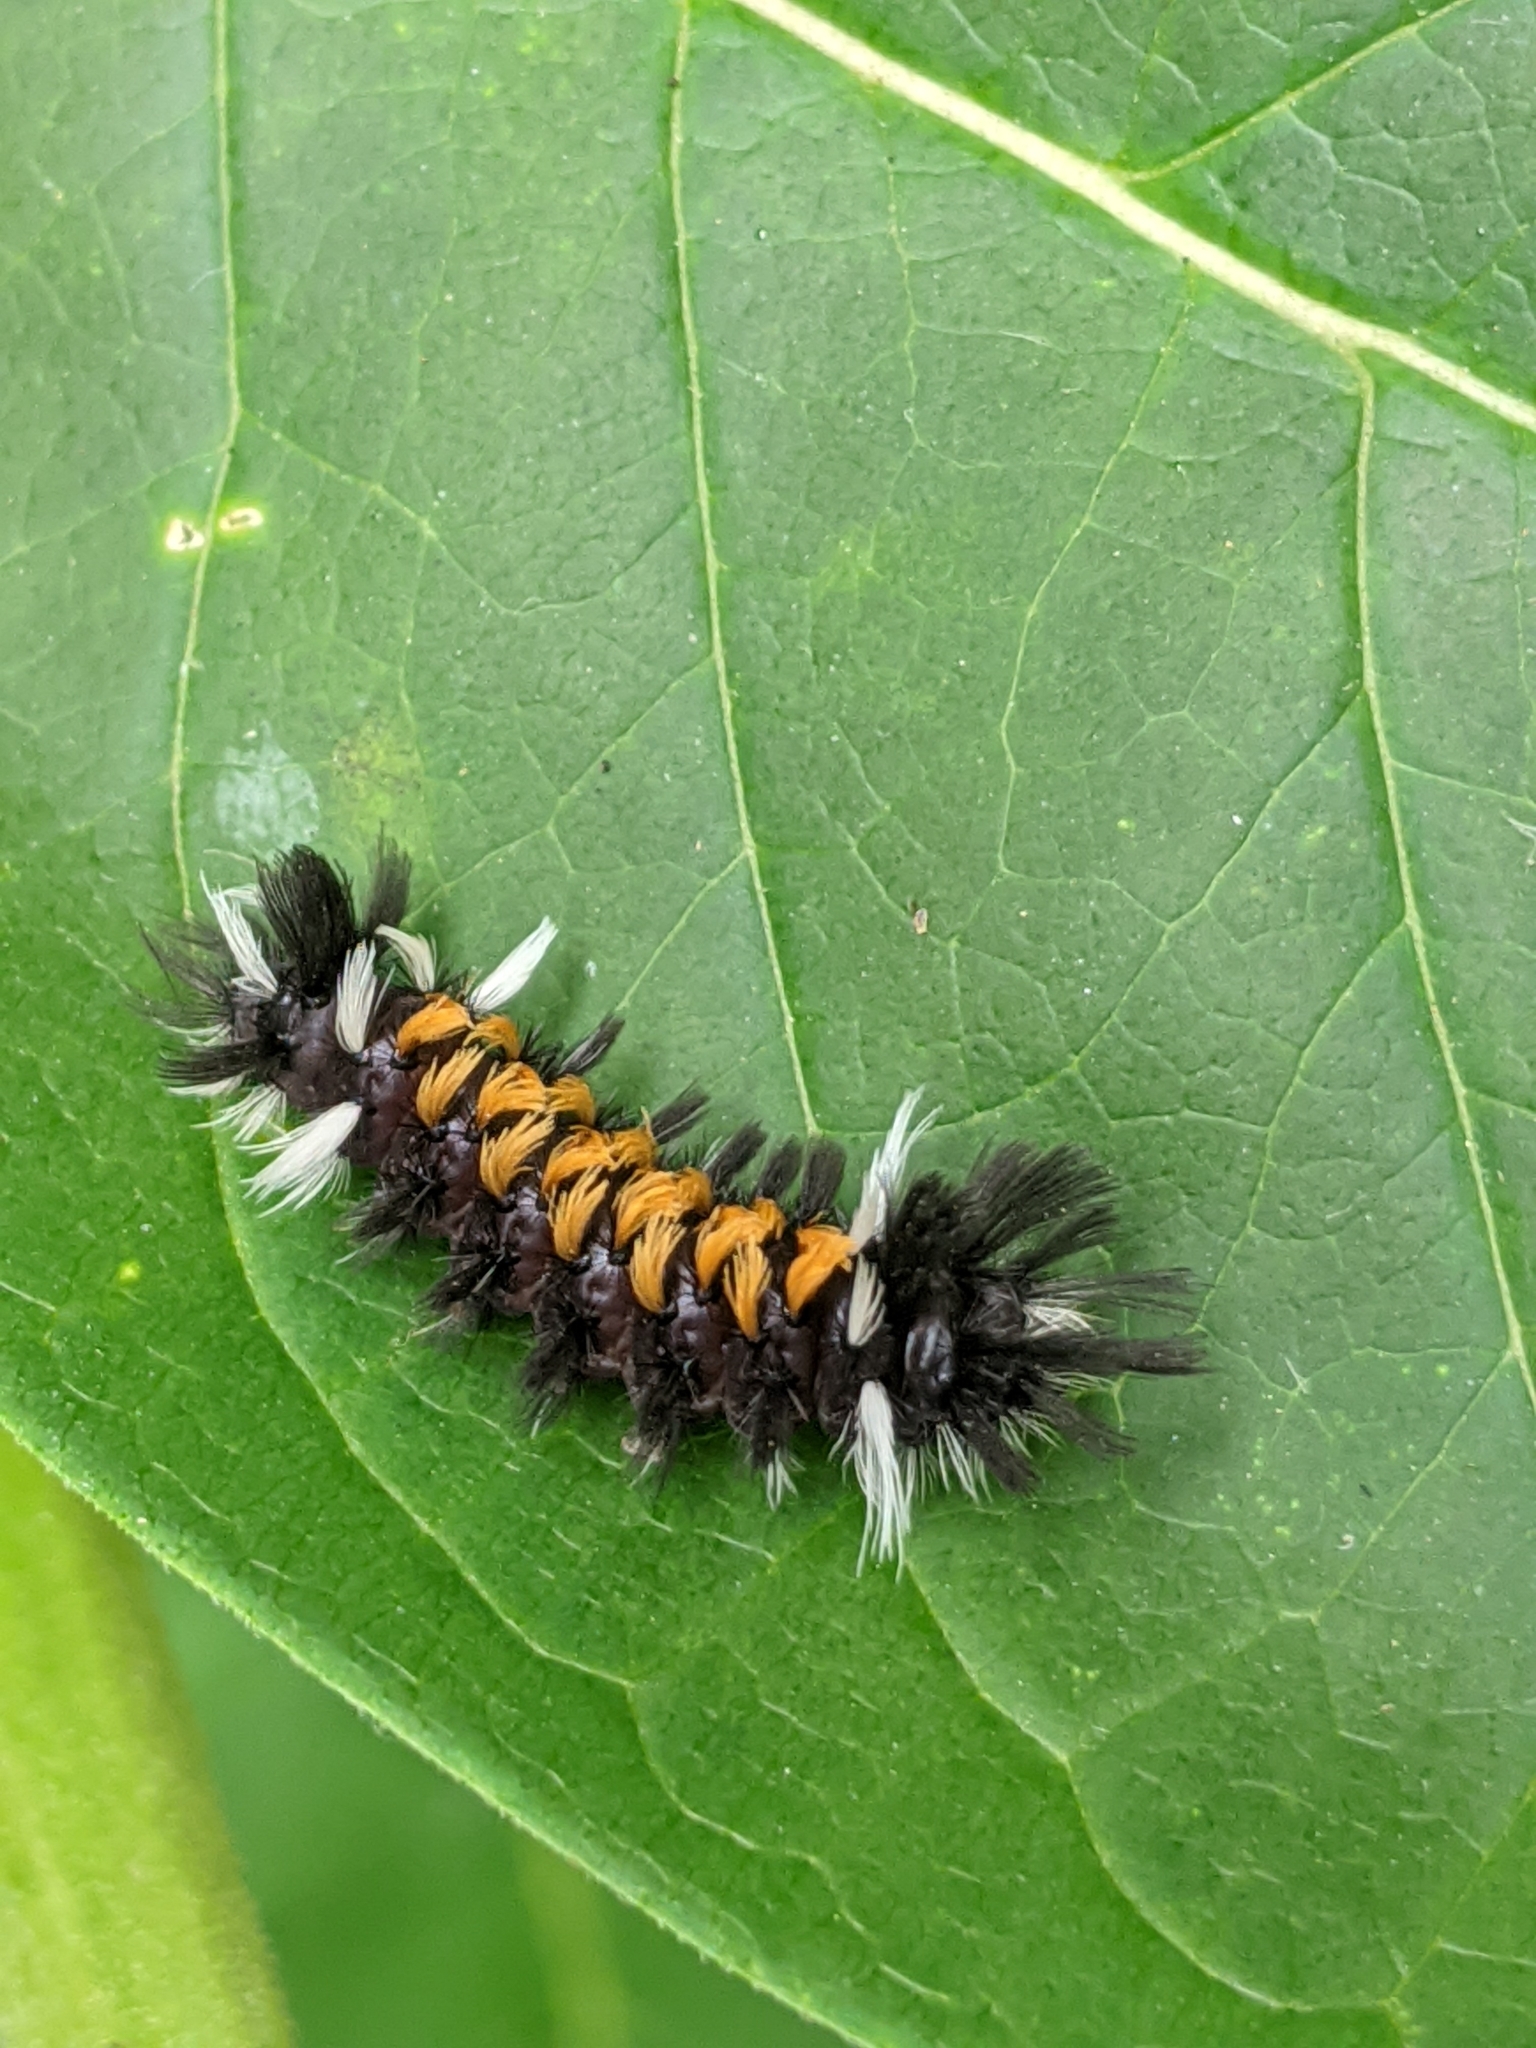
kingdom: Animalia
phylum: Arthropoda
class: Insecta
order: Lepidoptera
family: Erebidae
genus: Euchaetes
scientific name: Euchaetes egle
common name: Milkweed tussock moth
